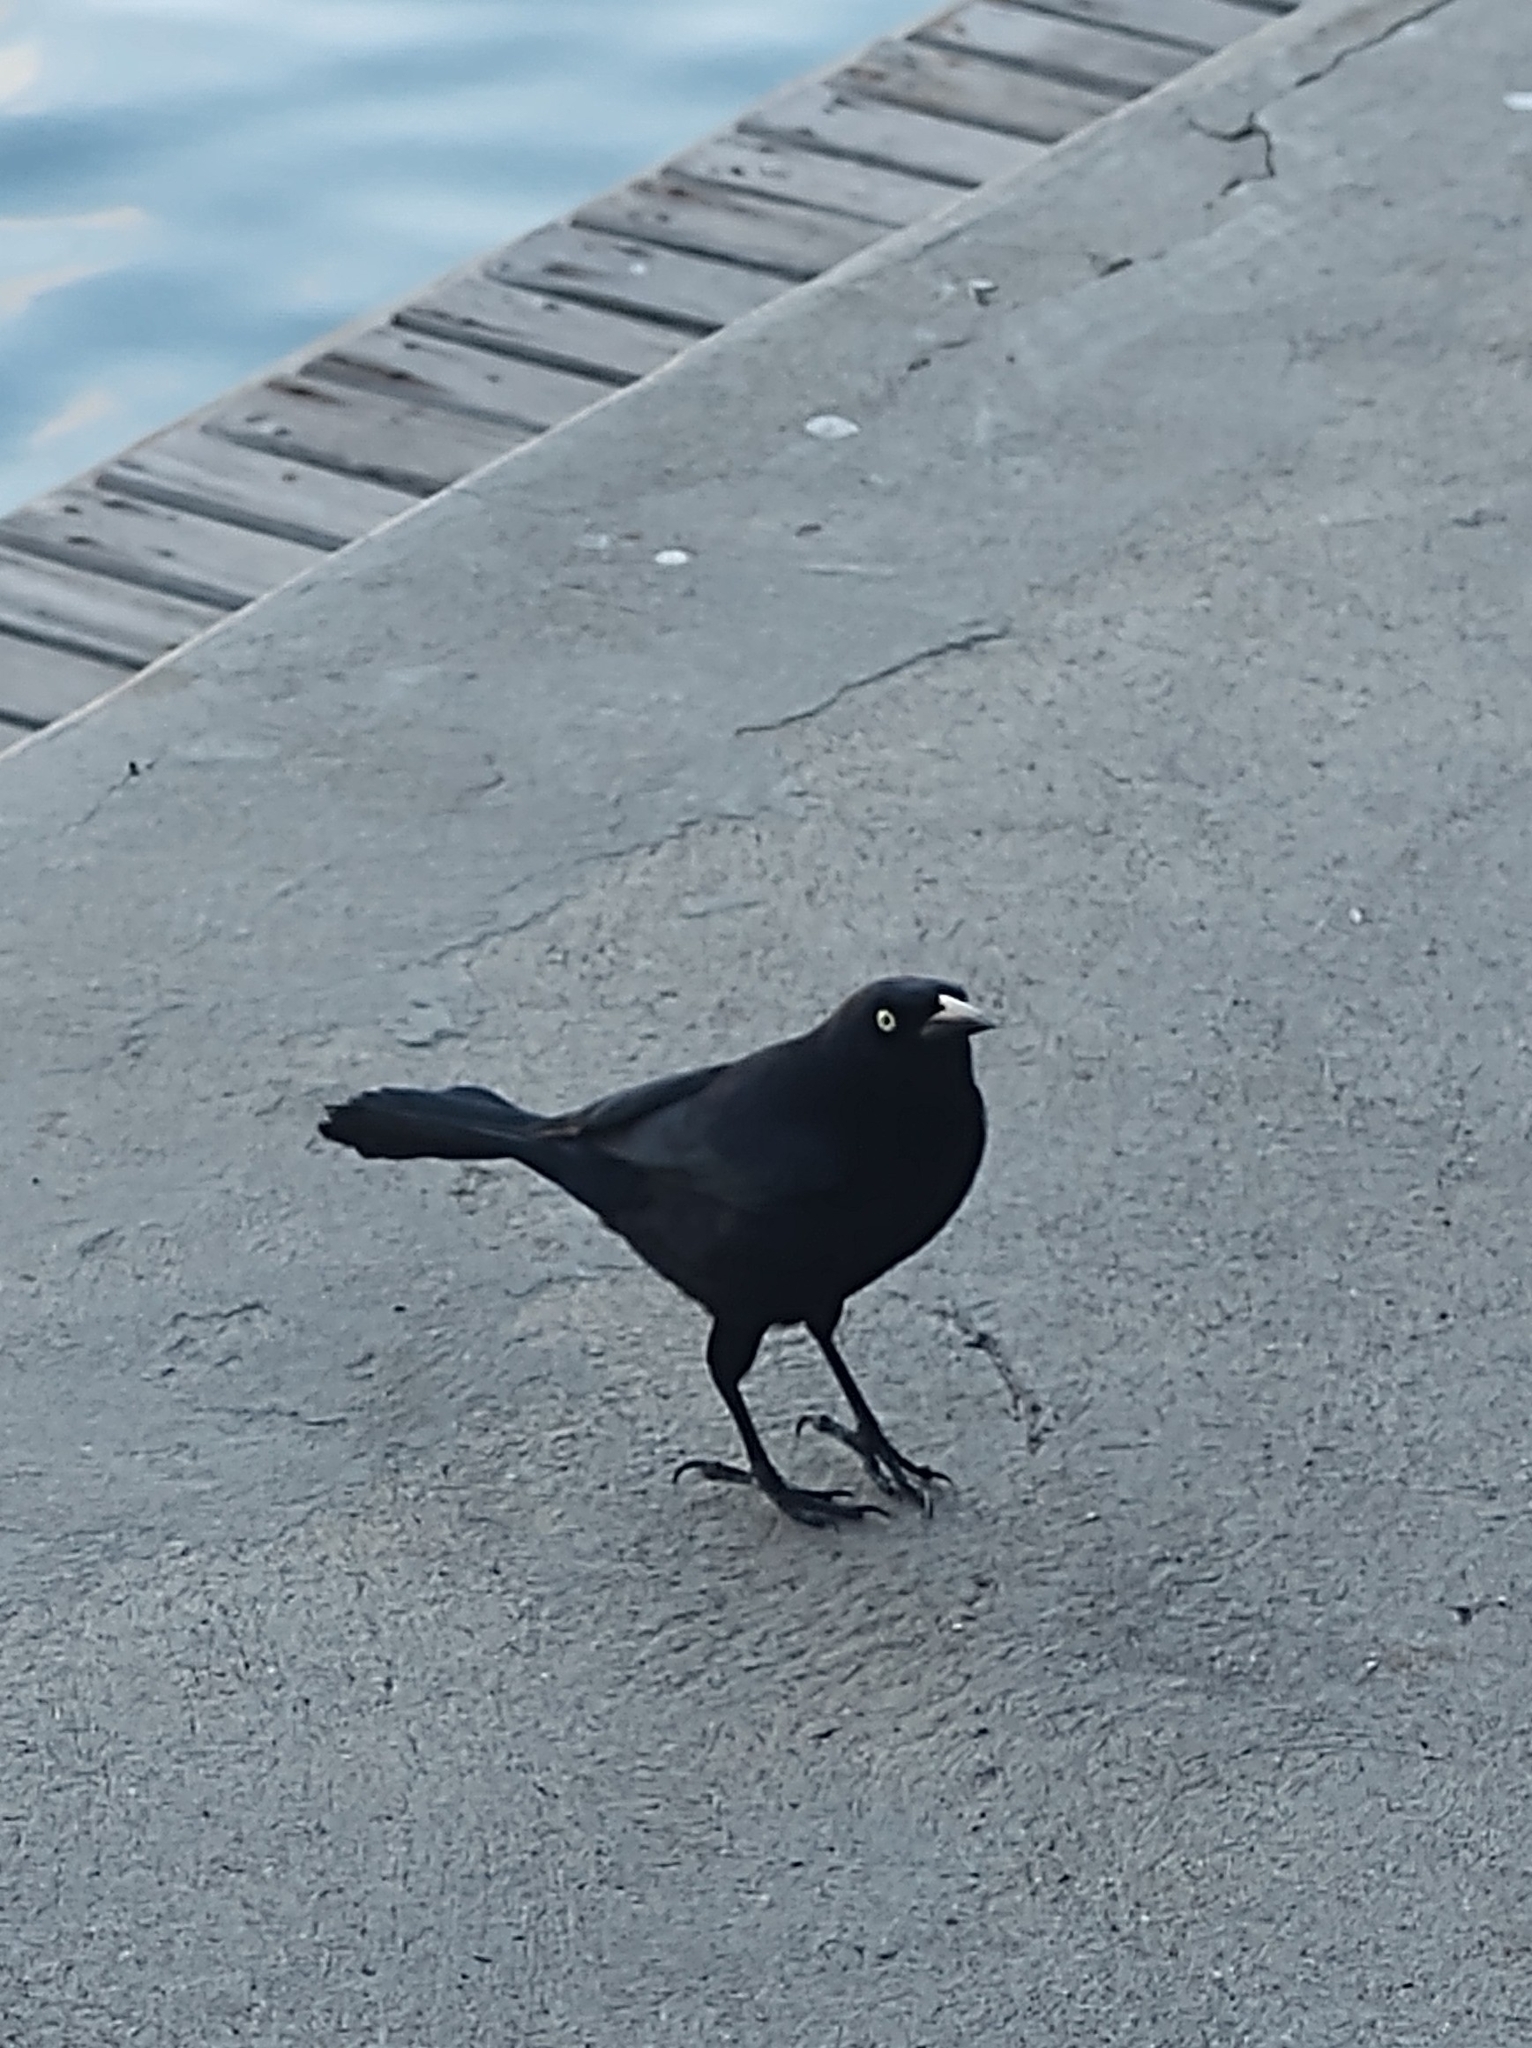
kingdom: Animalia
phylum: Chordata
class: Aves
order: Passeriformes
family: Icteridae
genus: Quiscalus
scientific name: Quiscalus lugubris
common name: Carib grackle
